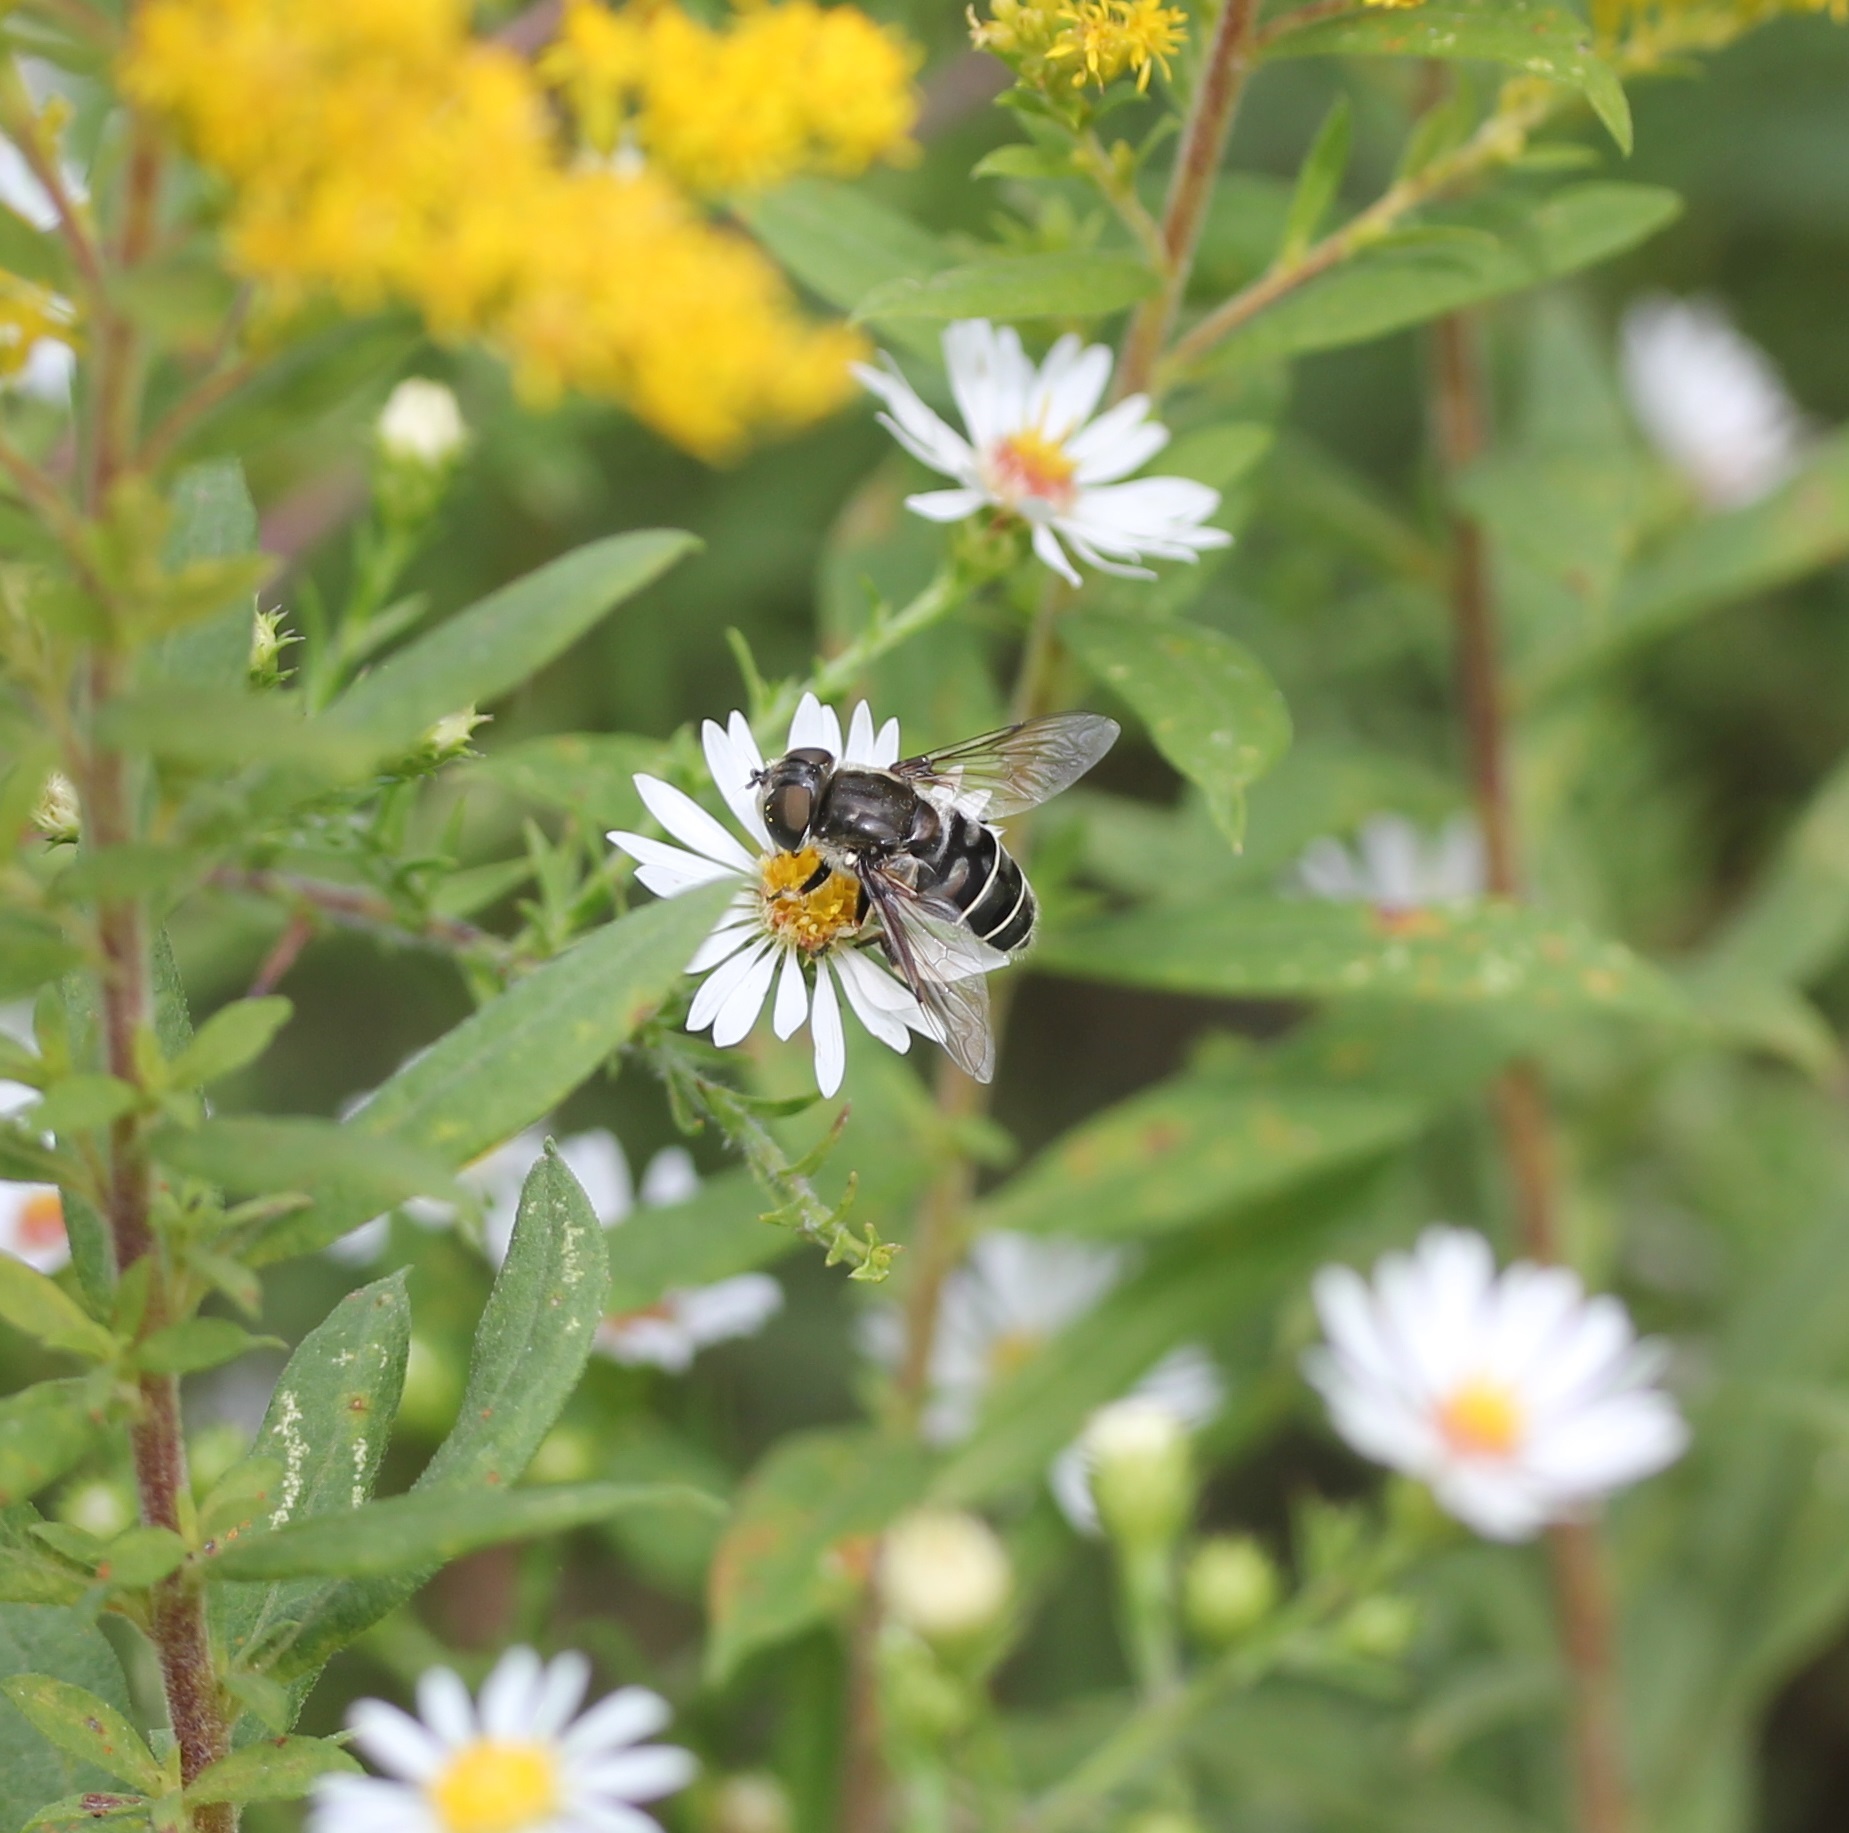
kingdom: Animalia
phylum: Arthropoda
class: Insecta
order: Diptera
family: Syrphidae
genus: Eristalis
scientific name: Eristalis dimidiata
